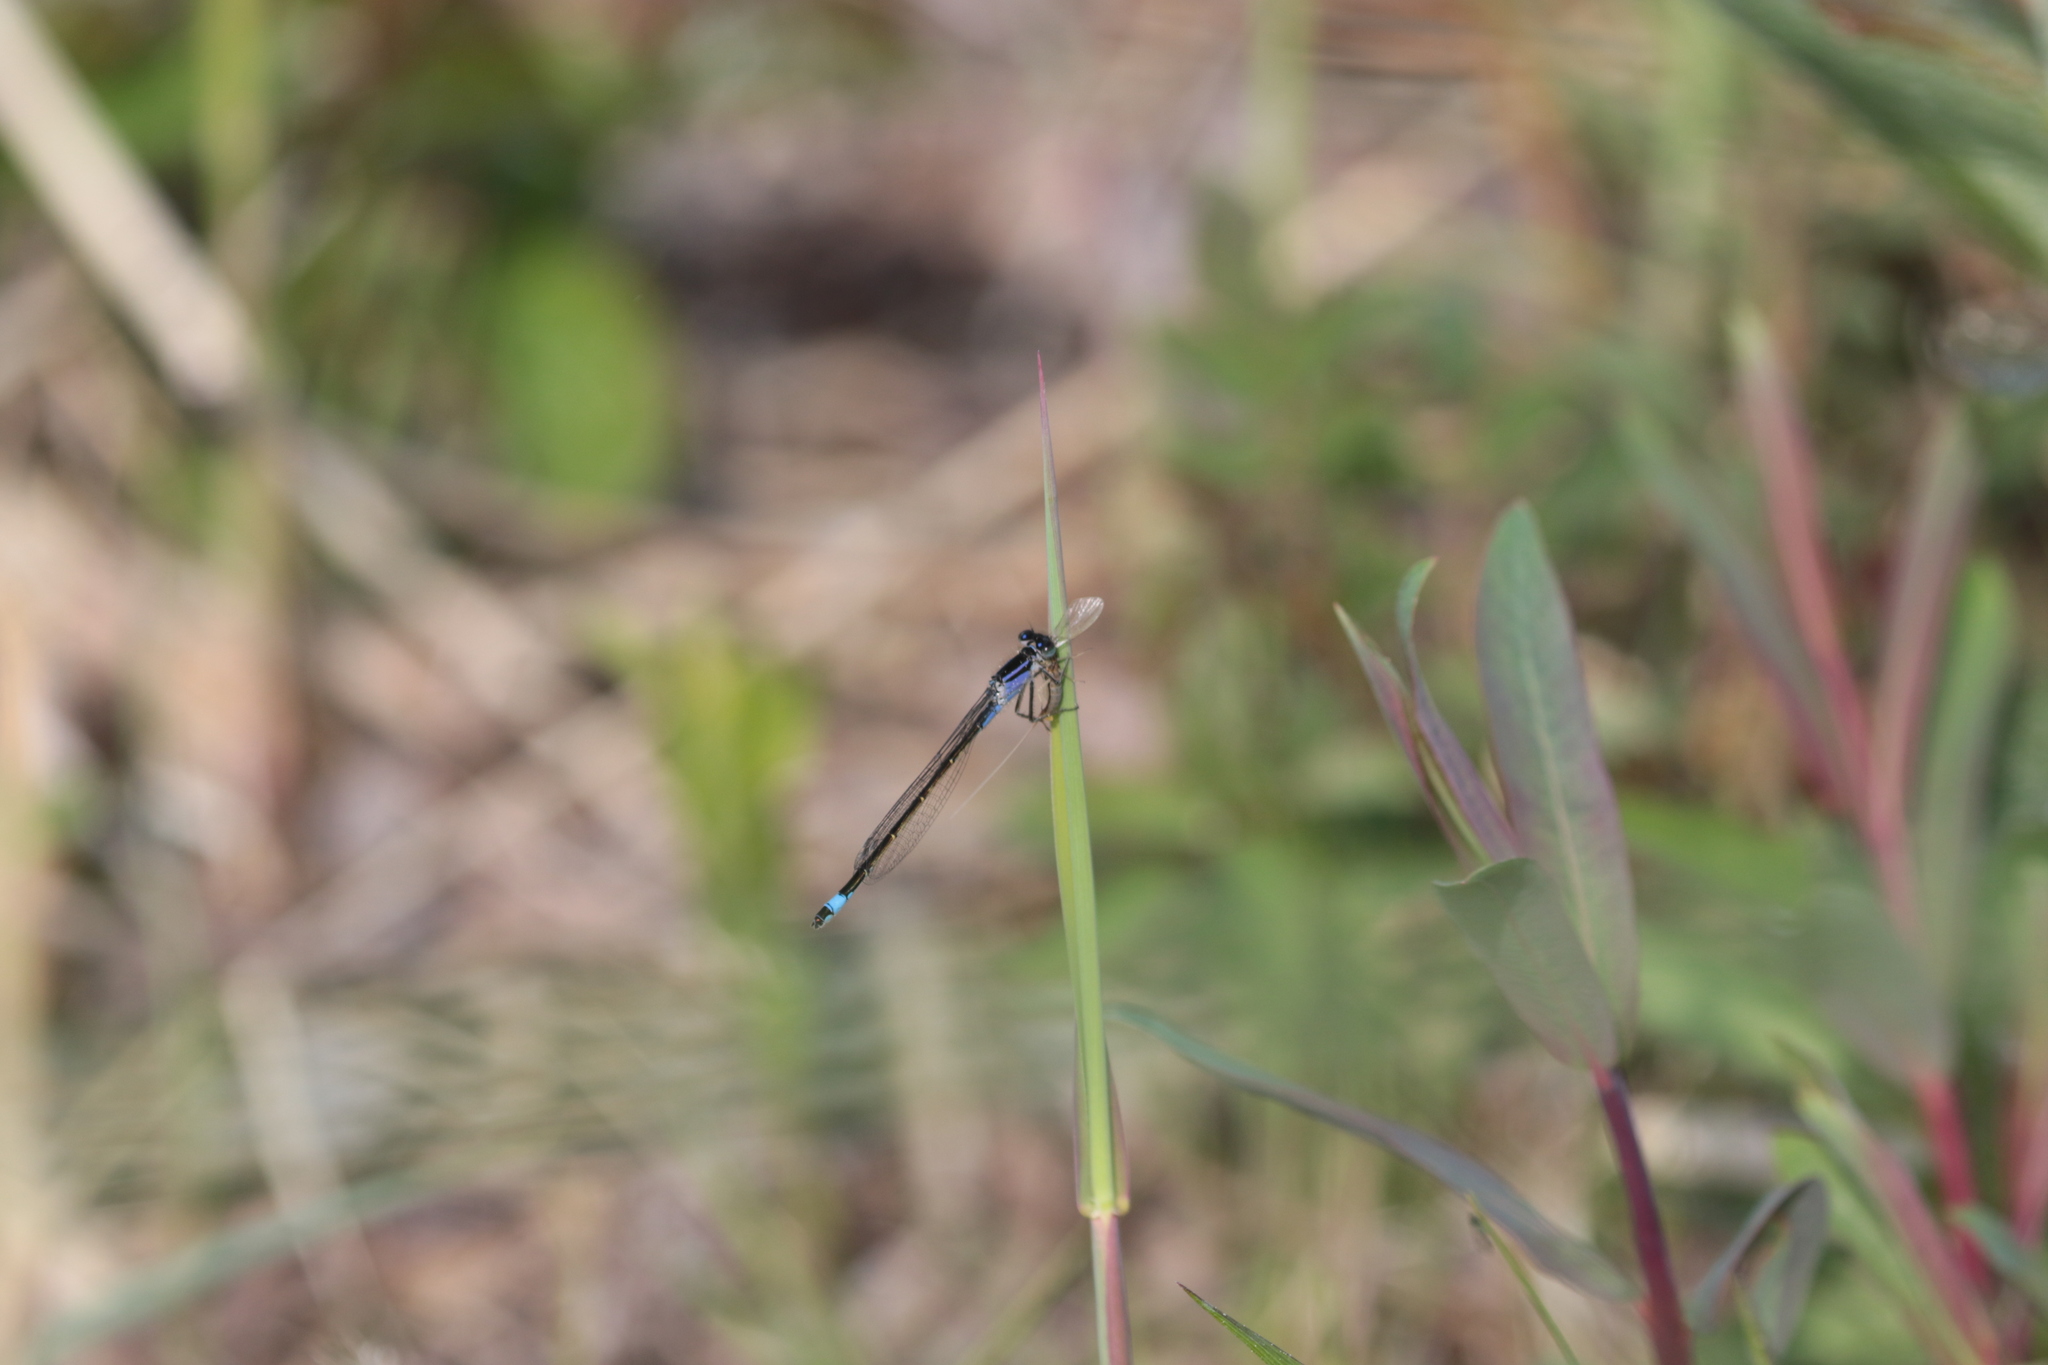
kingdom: Animalia
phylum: Arthropoda
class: Insecta
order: Odonata
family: Coenagrionidae
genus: Ischnura
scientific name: Ischnura elegans
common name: Blue-tailed damselfly
